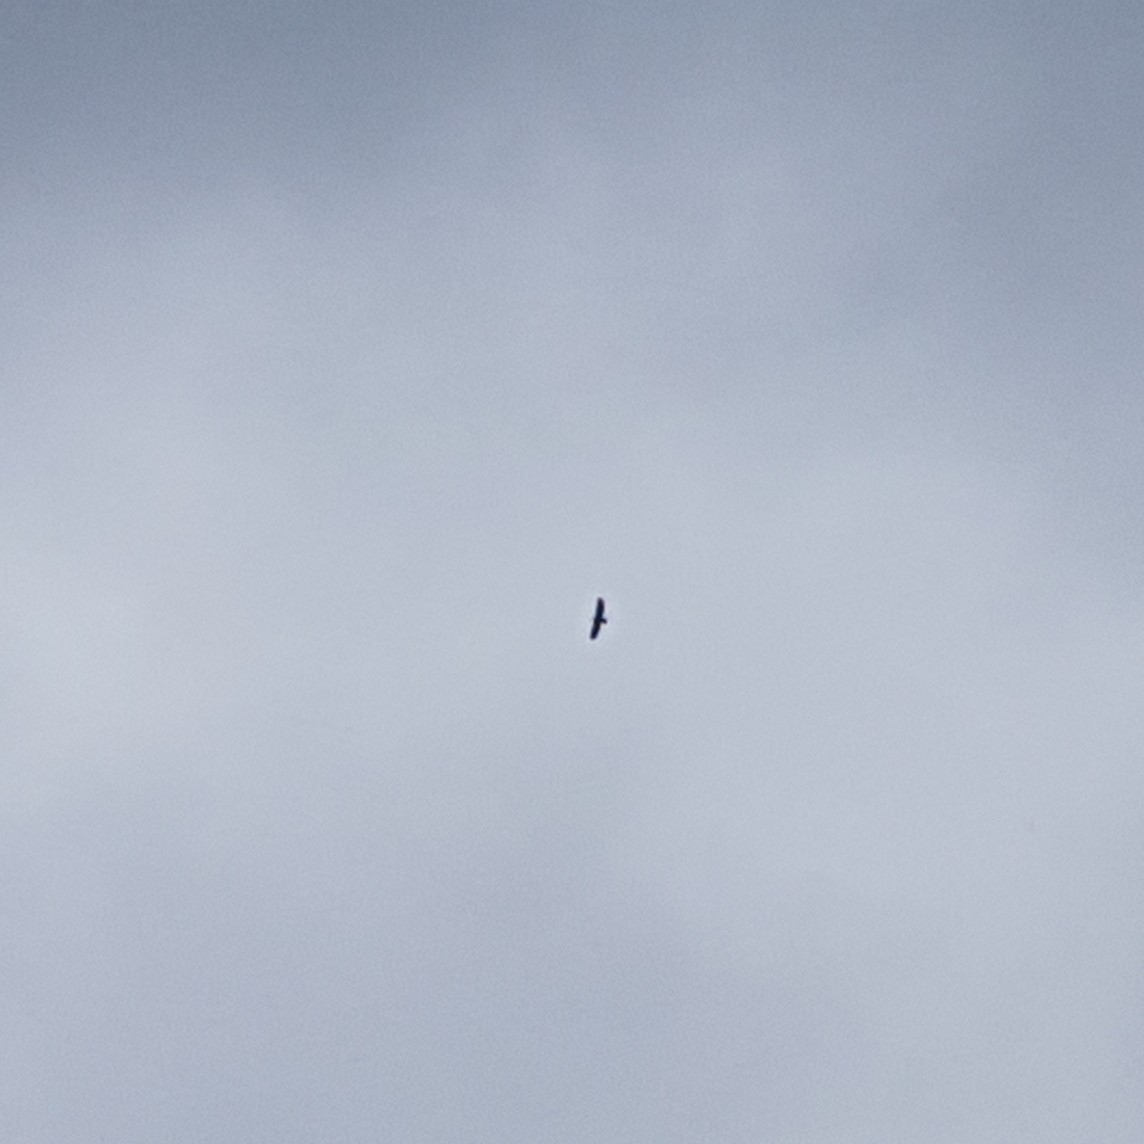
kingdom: Animalia
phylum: Chordata
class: Aves
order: Accipitriformes
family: Accipitridae
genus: Haliaeetus
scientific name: Haliaeetus leucocephalus
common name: Bald eagle
